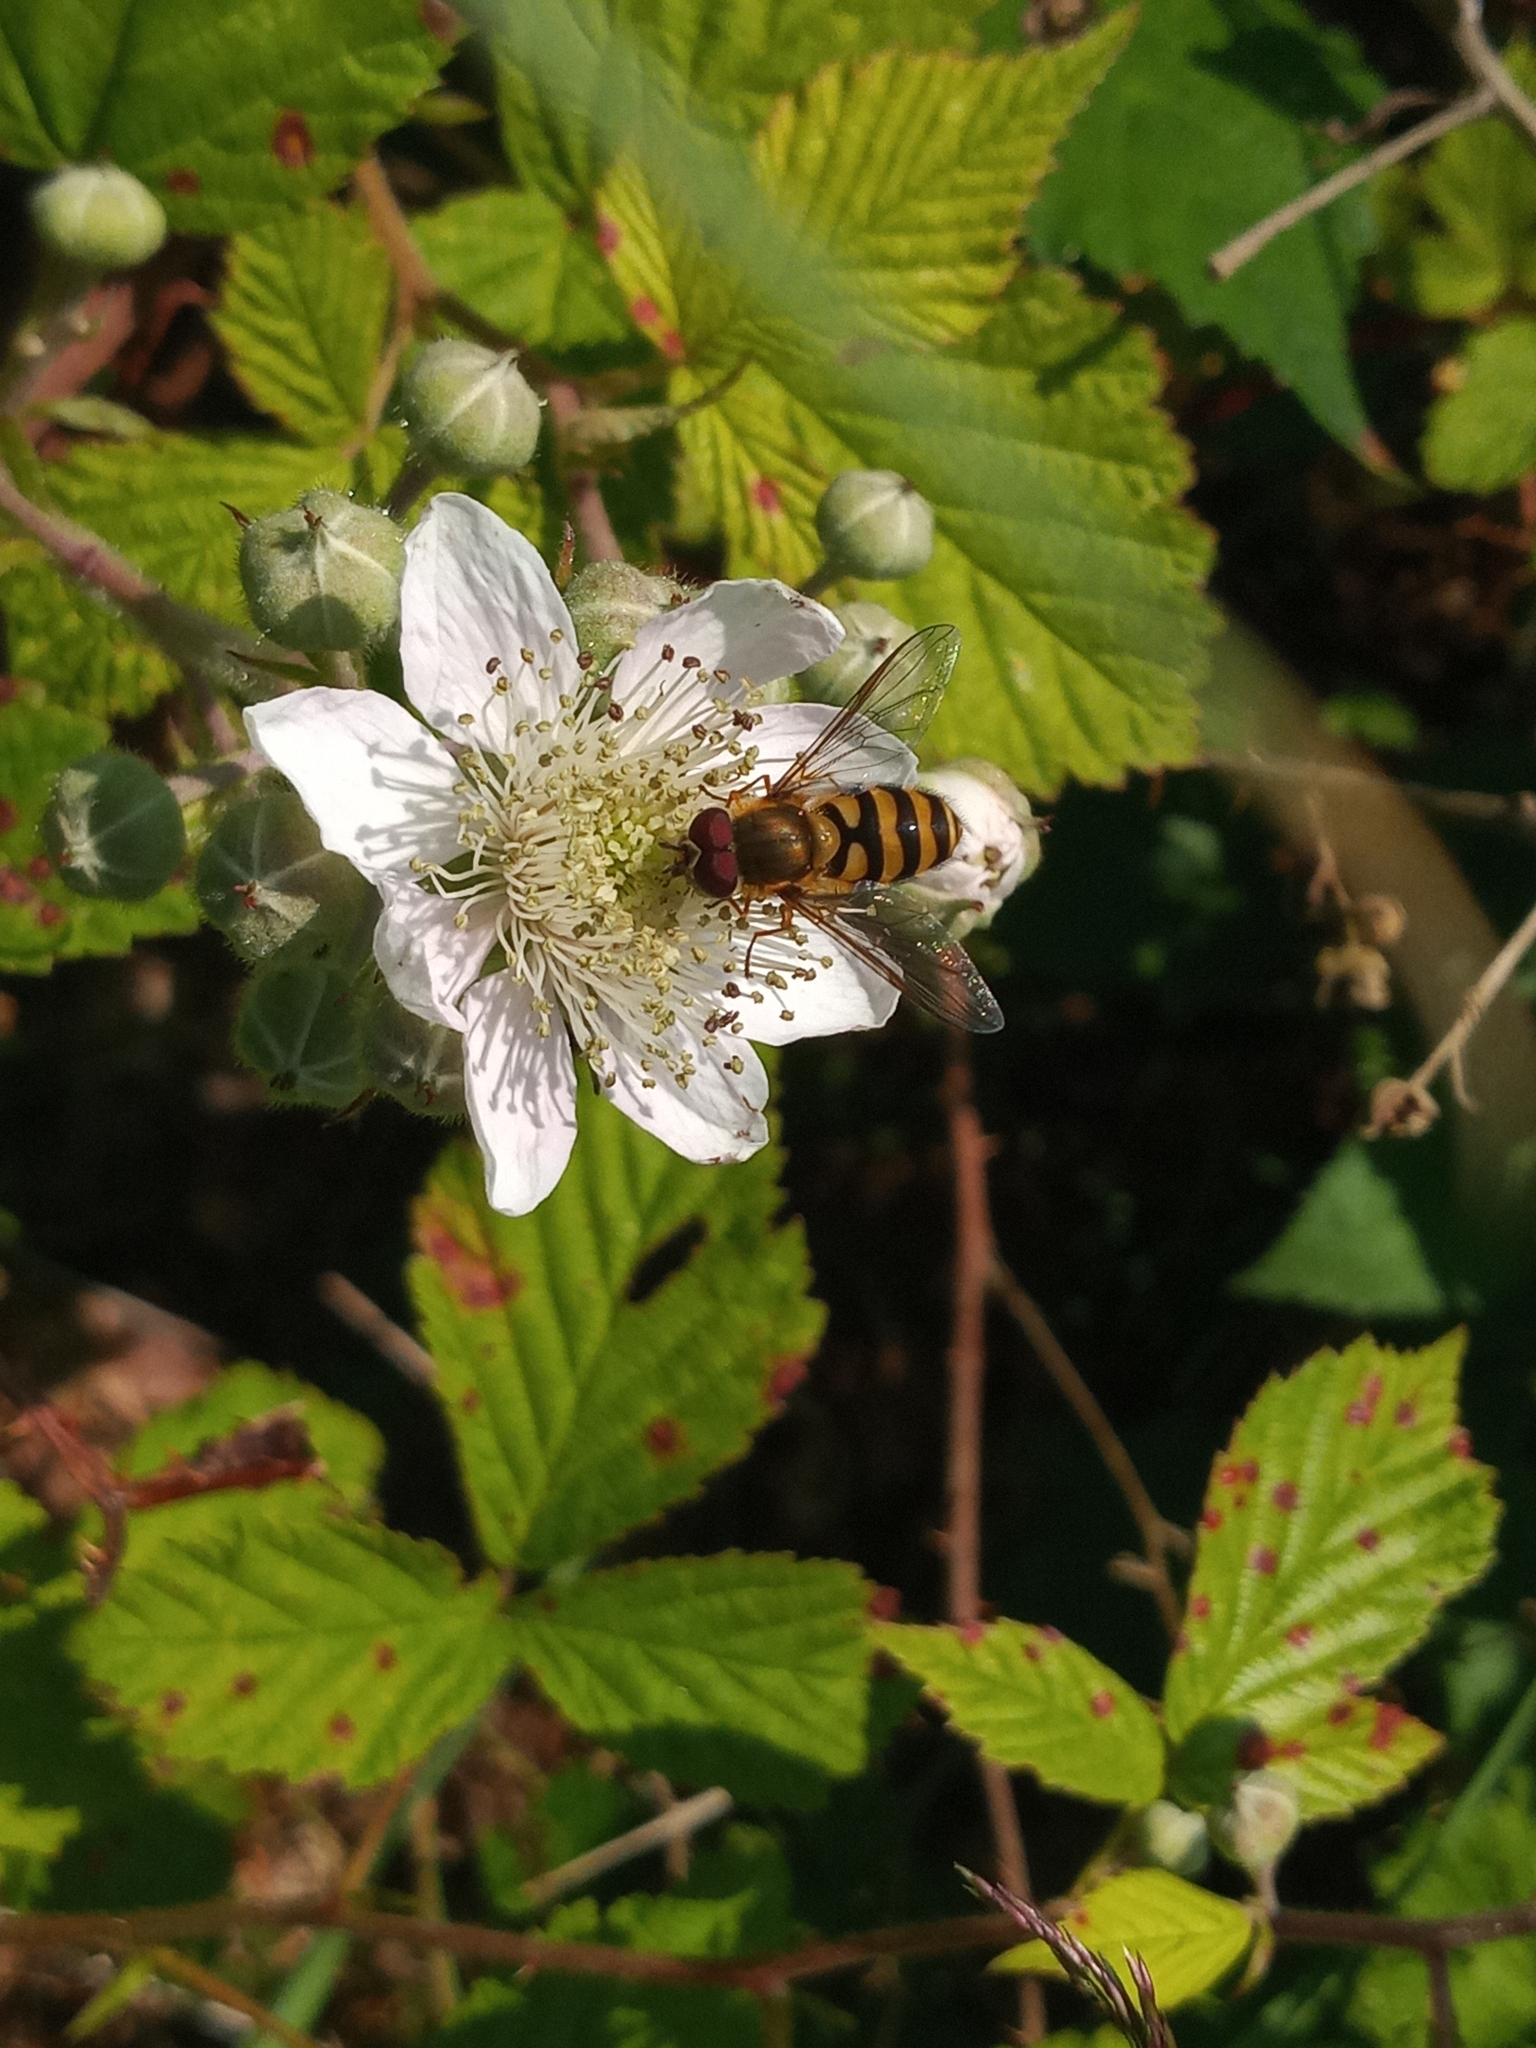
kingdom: Animalia
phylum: Arthropoda
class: Insecta
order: Diptera
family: Syrphidae
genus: Syrphus
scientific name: Syrphus
